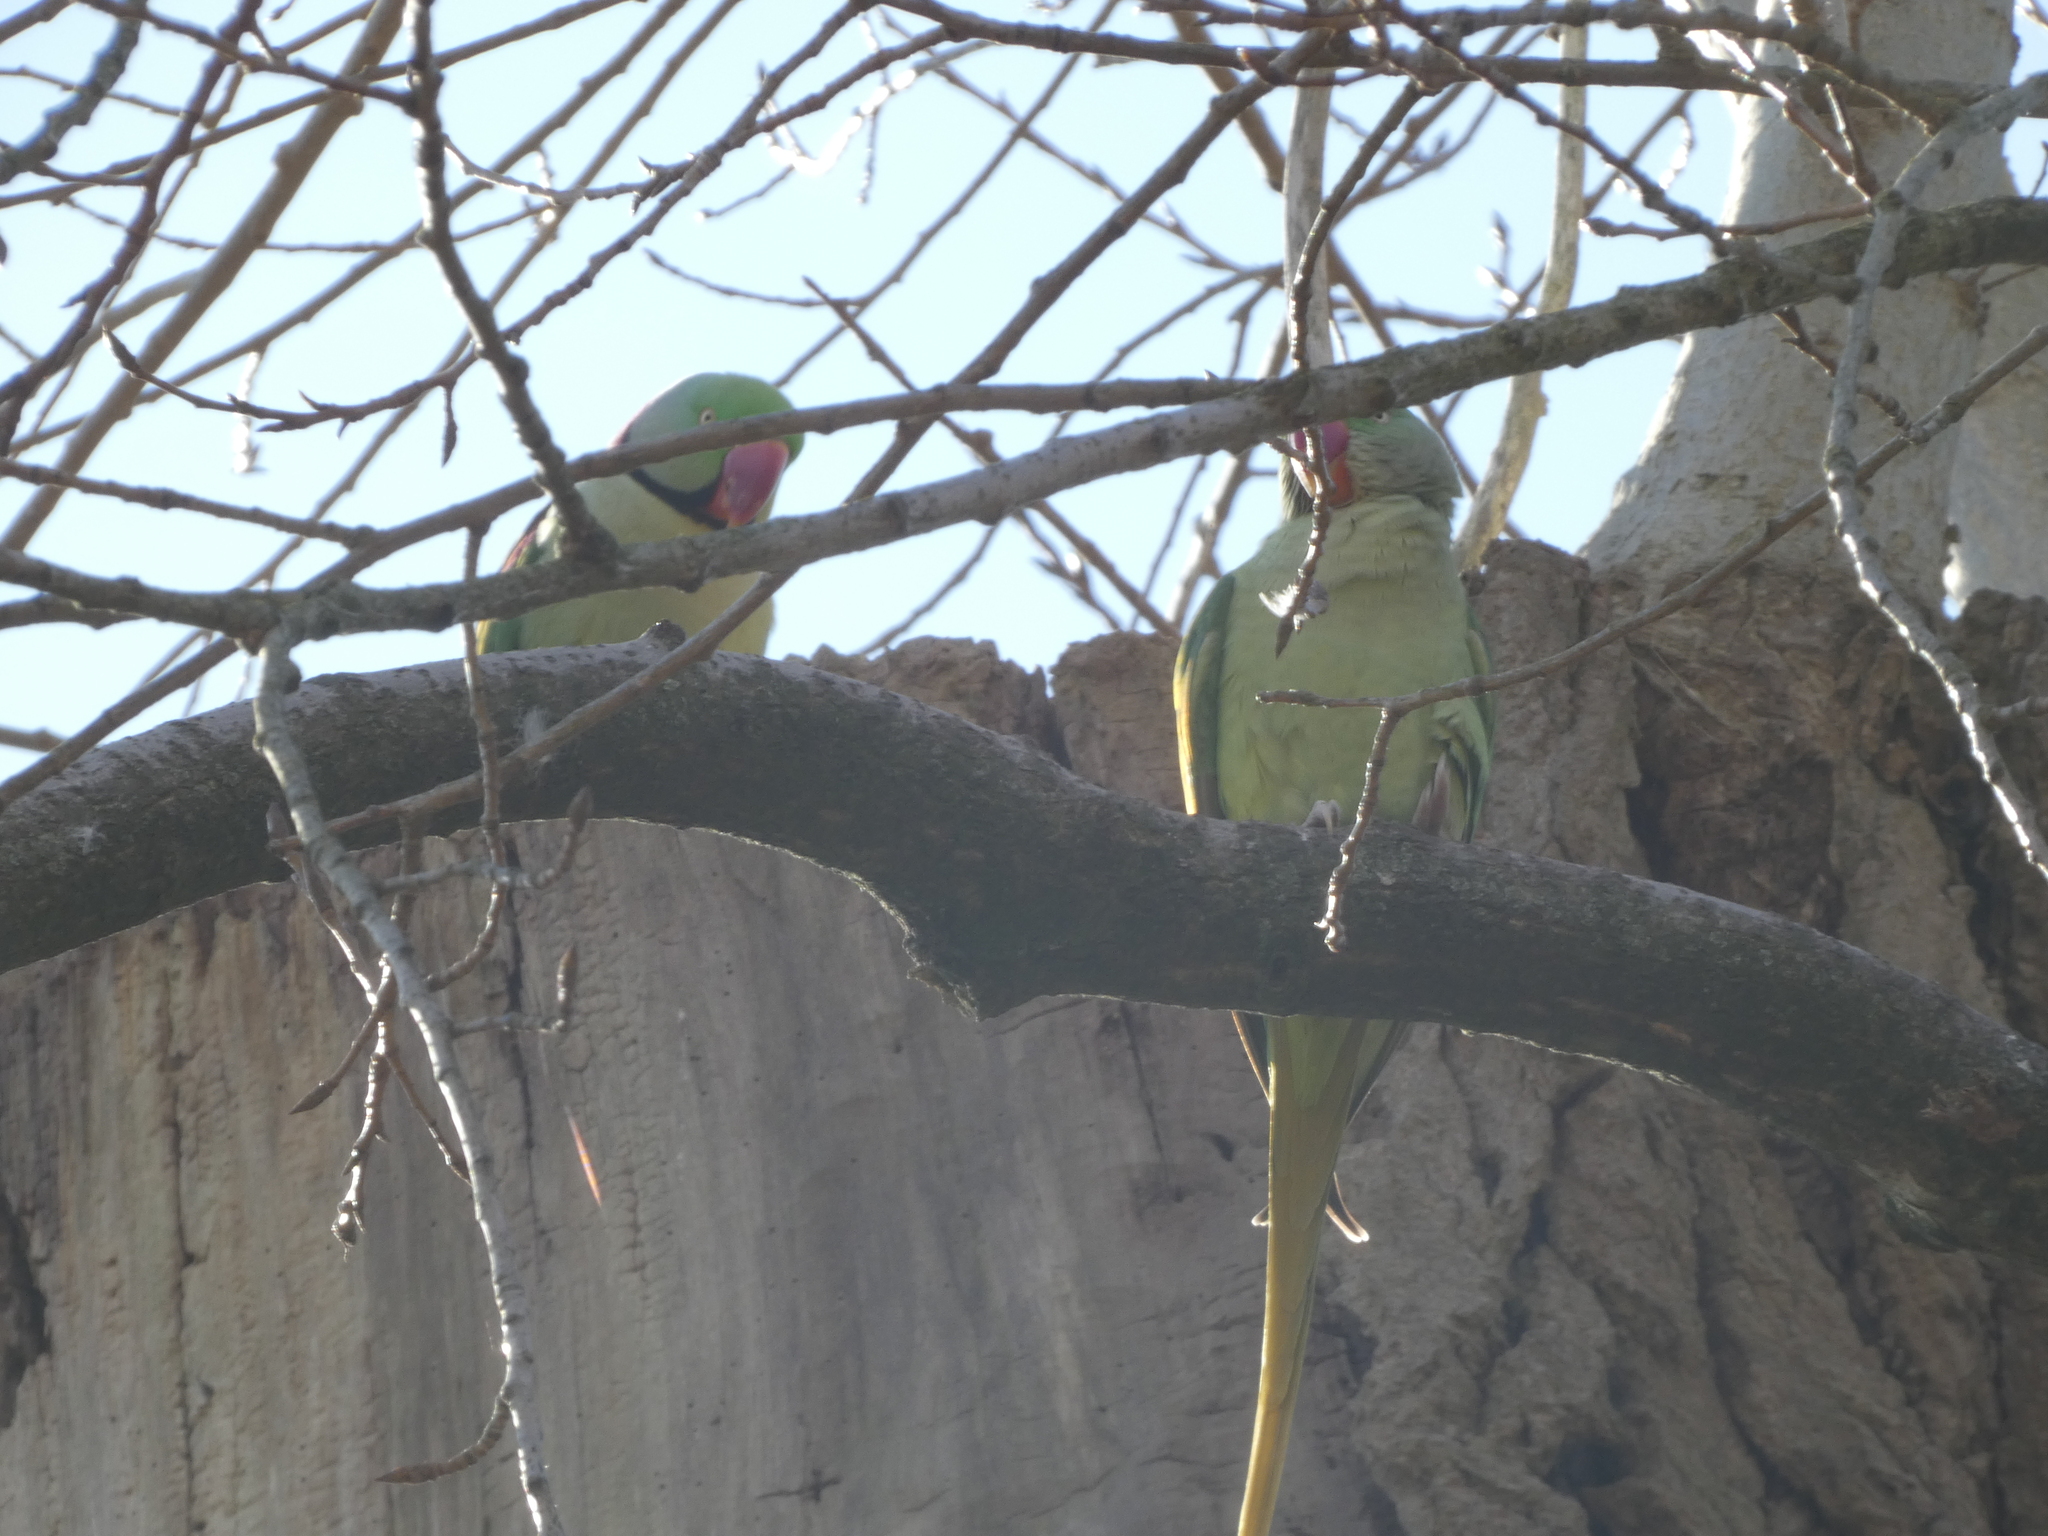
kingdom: Animalia
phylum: Chordata
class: Aves
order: Psittaciformes
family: Psittacidae
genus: Psittacula
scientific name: Psittacula eupatria
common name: Alexandrine parakeet
